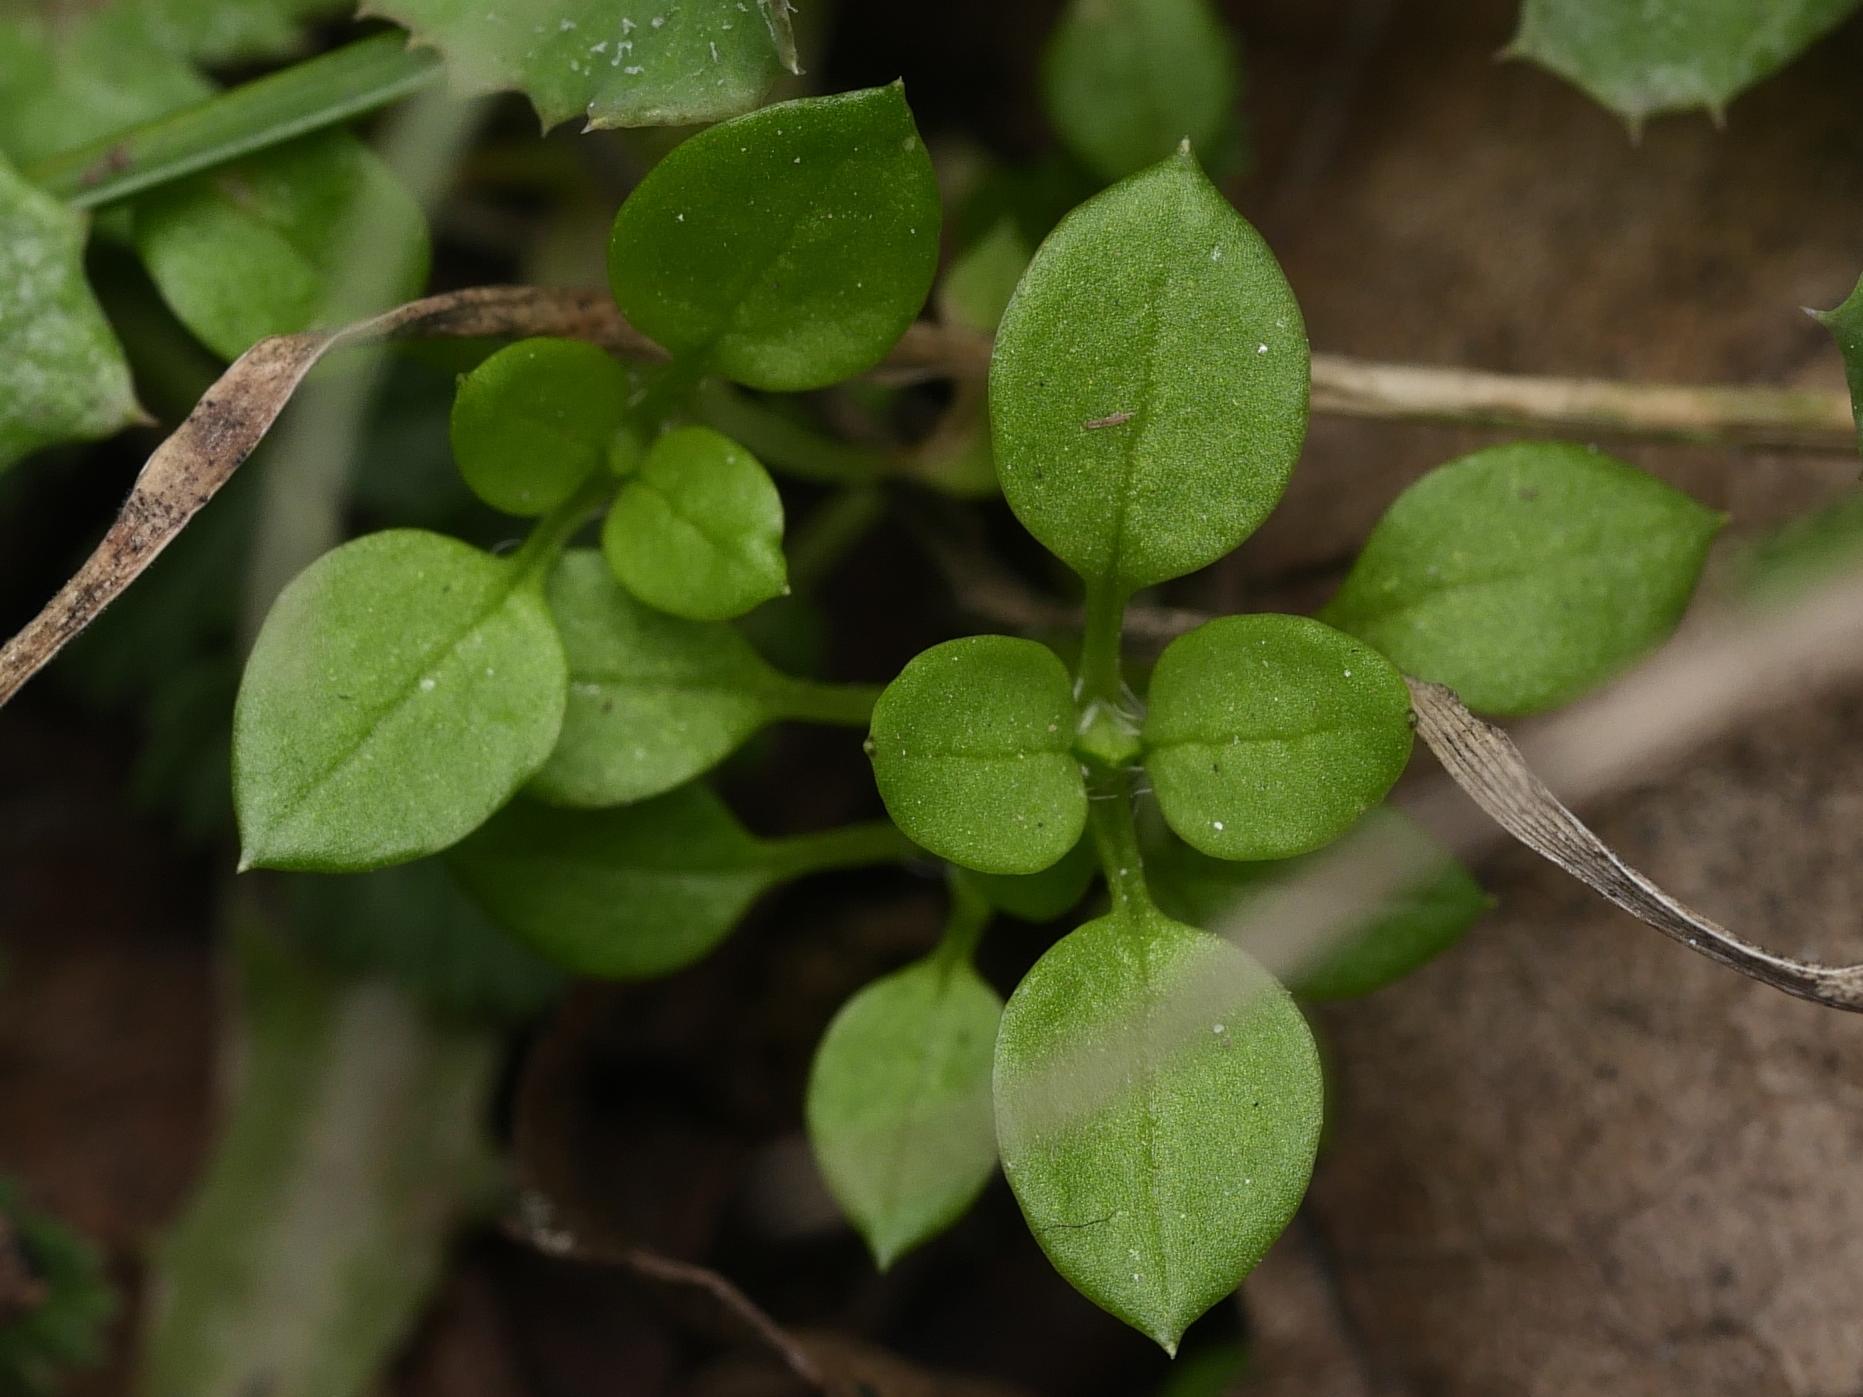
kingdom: Plantae
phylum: Tracheophyta
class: Magnoliopsida
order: Caryophyllales
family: Caryophyllaceae
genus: Stellaria
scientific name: Stellaria media
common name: Common chickweed
